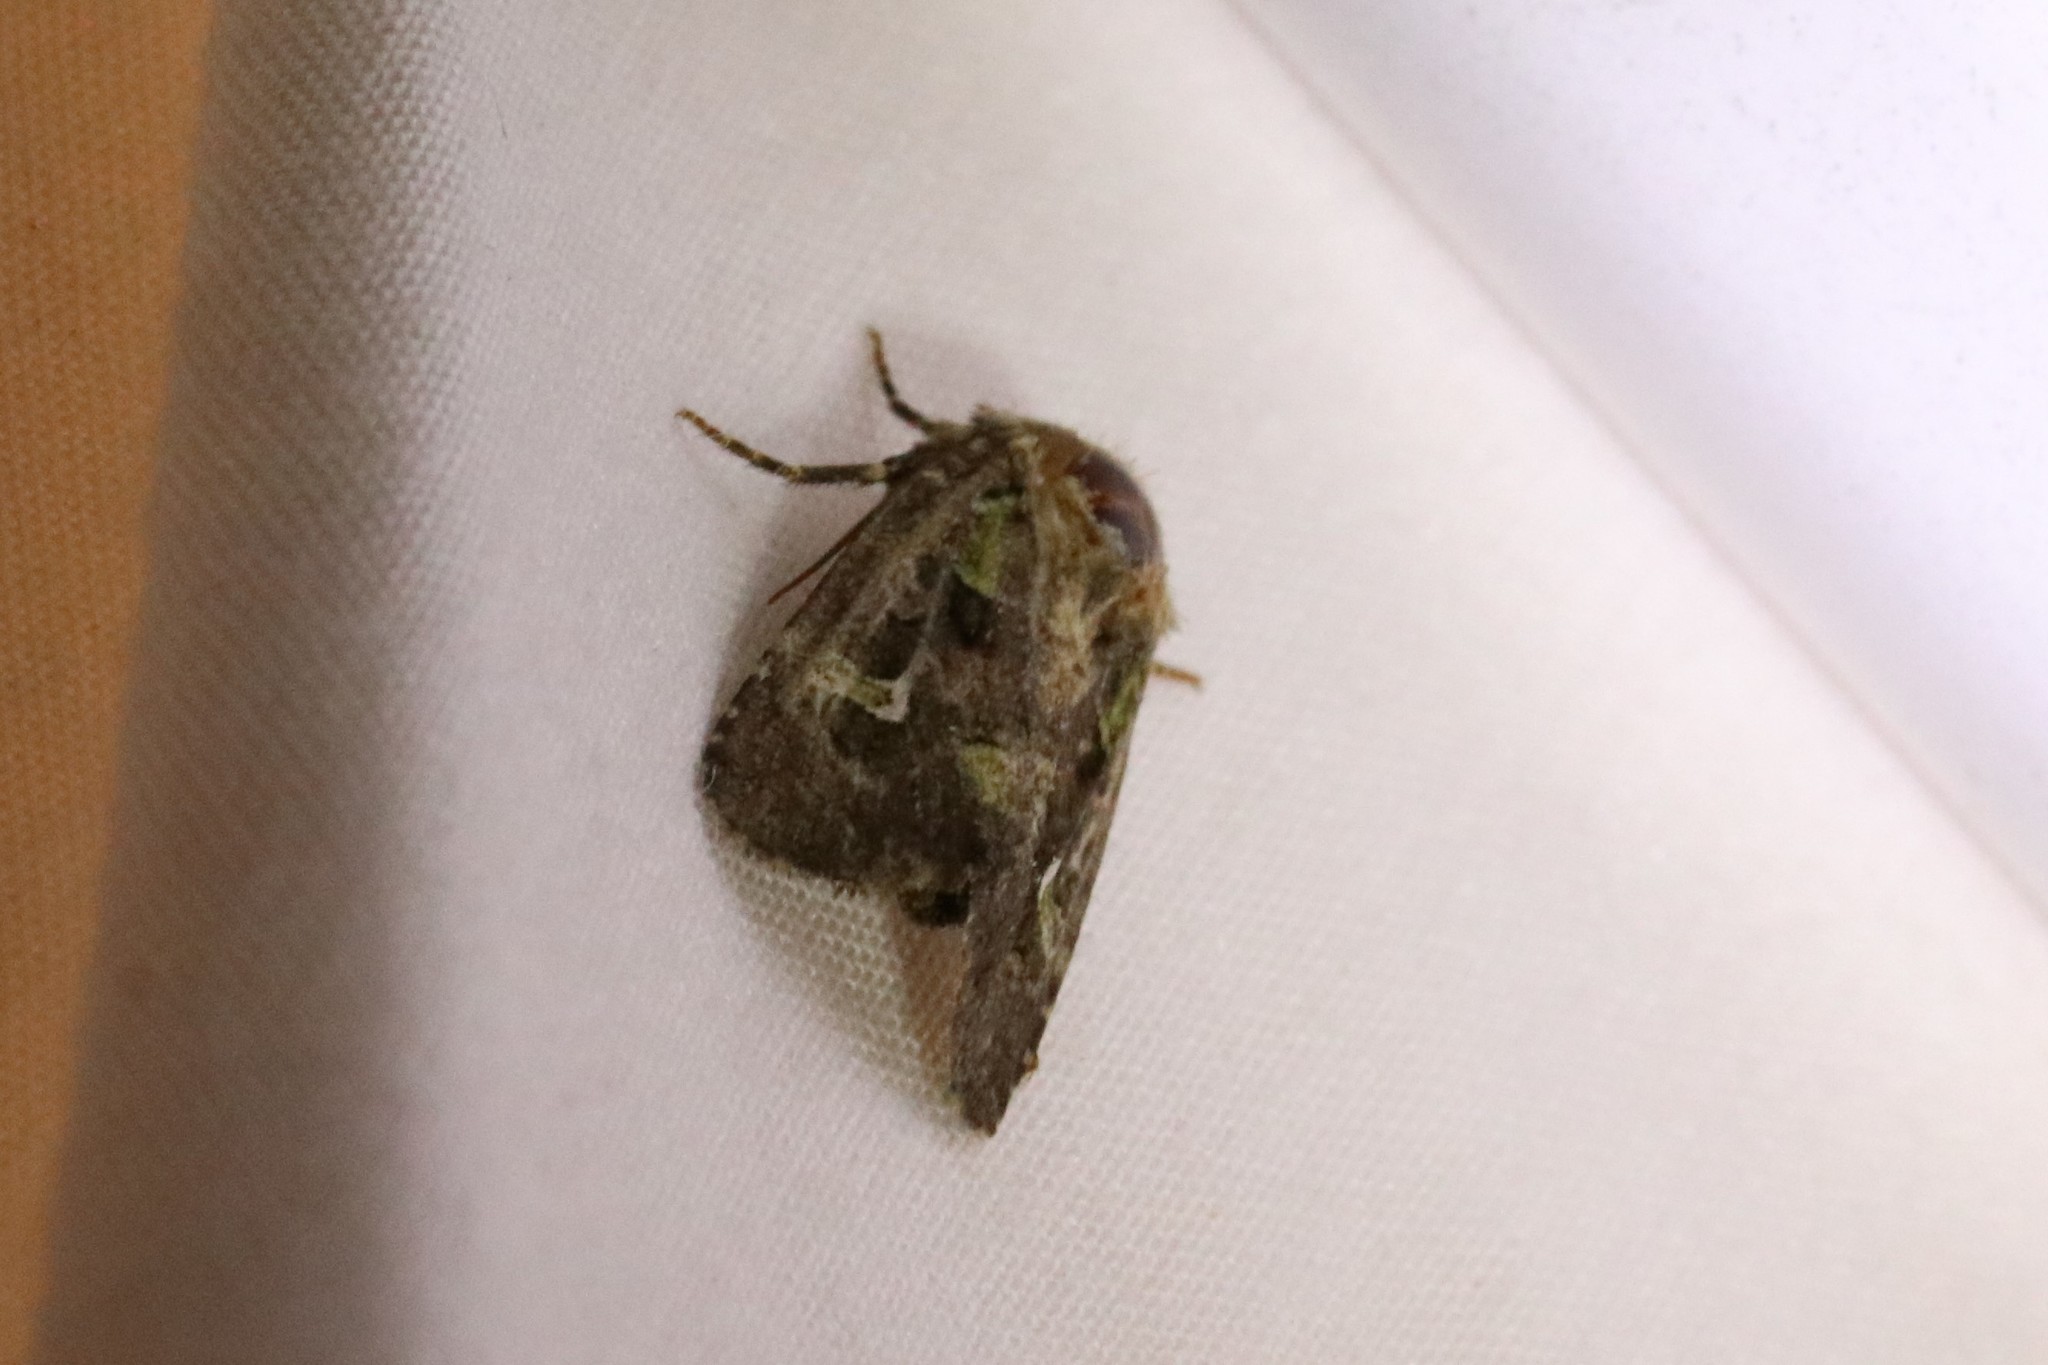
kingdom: Animalia
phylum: Arthropoda
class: Insecta
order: Lepidoptera
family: Noctuidae
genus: Lacinipolia
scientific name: Lacinipolia renigera
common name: Kidney-spotted minor
